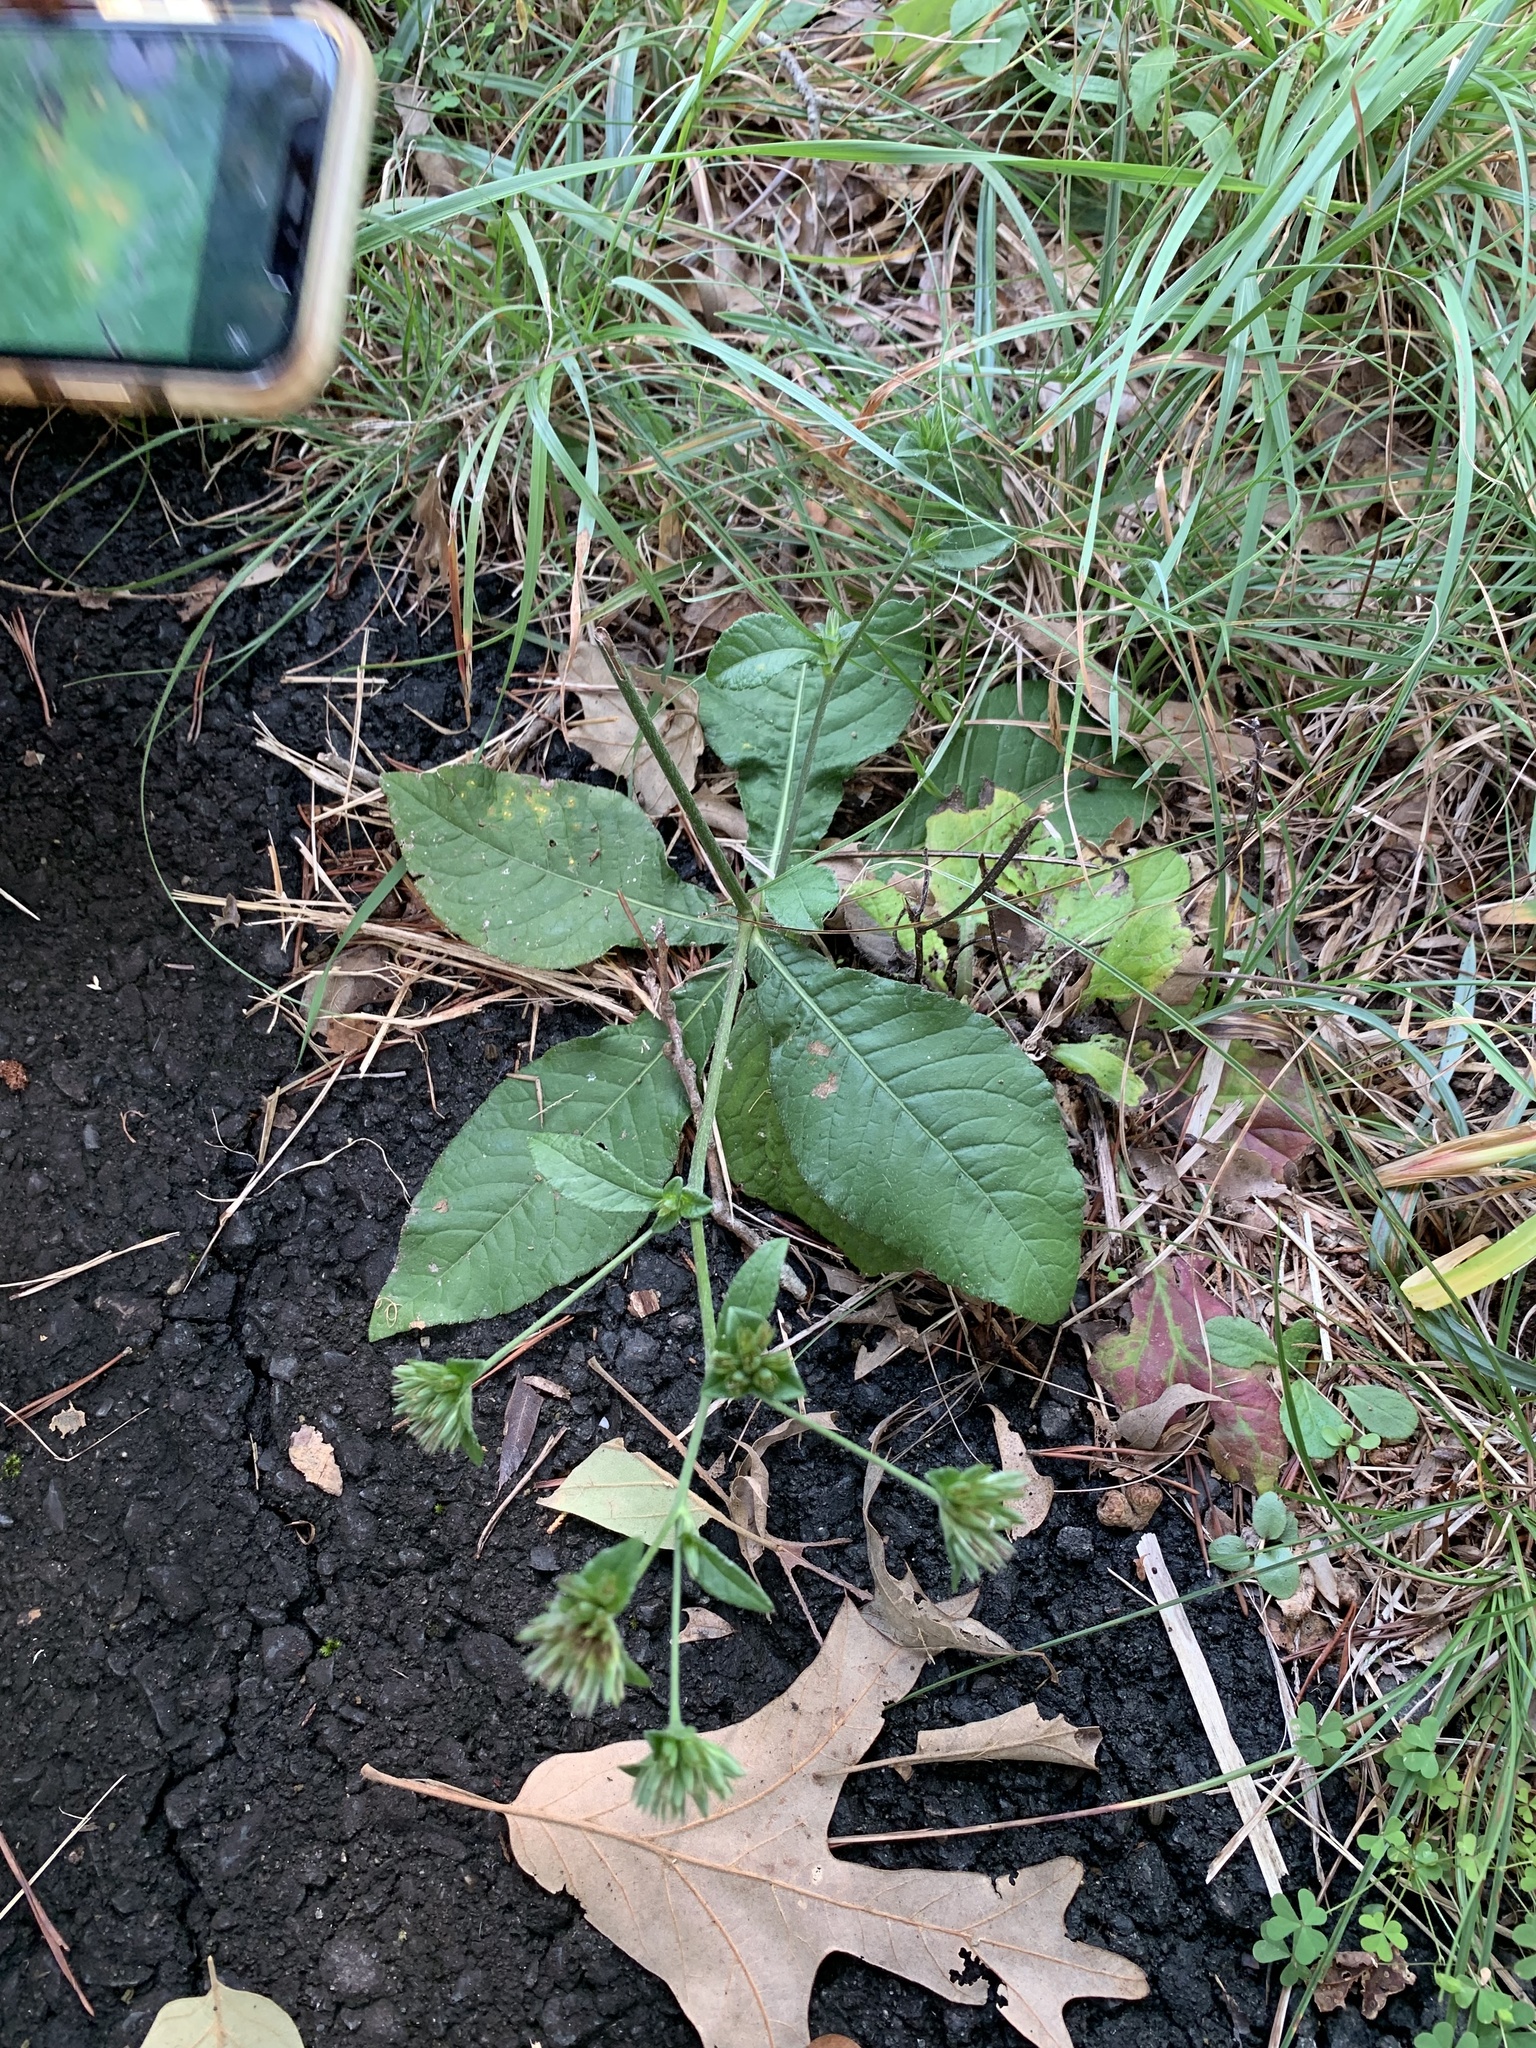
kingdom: Plantae
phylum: Tracheophyta
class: Magnoliopsida
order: Asterales
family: Asteraceae
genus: Elephantopus
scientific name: Elephantopus tomentosus
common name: Tobacco-weed
